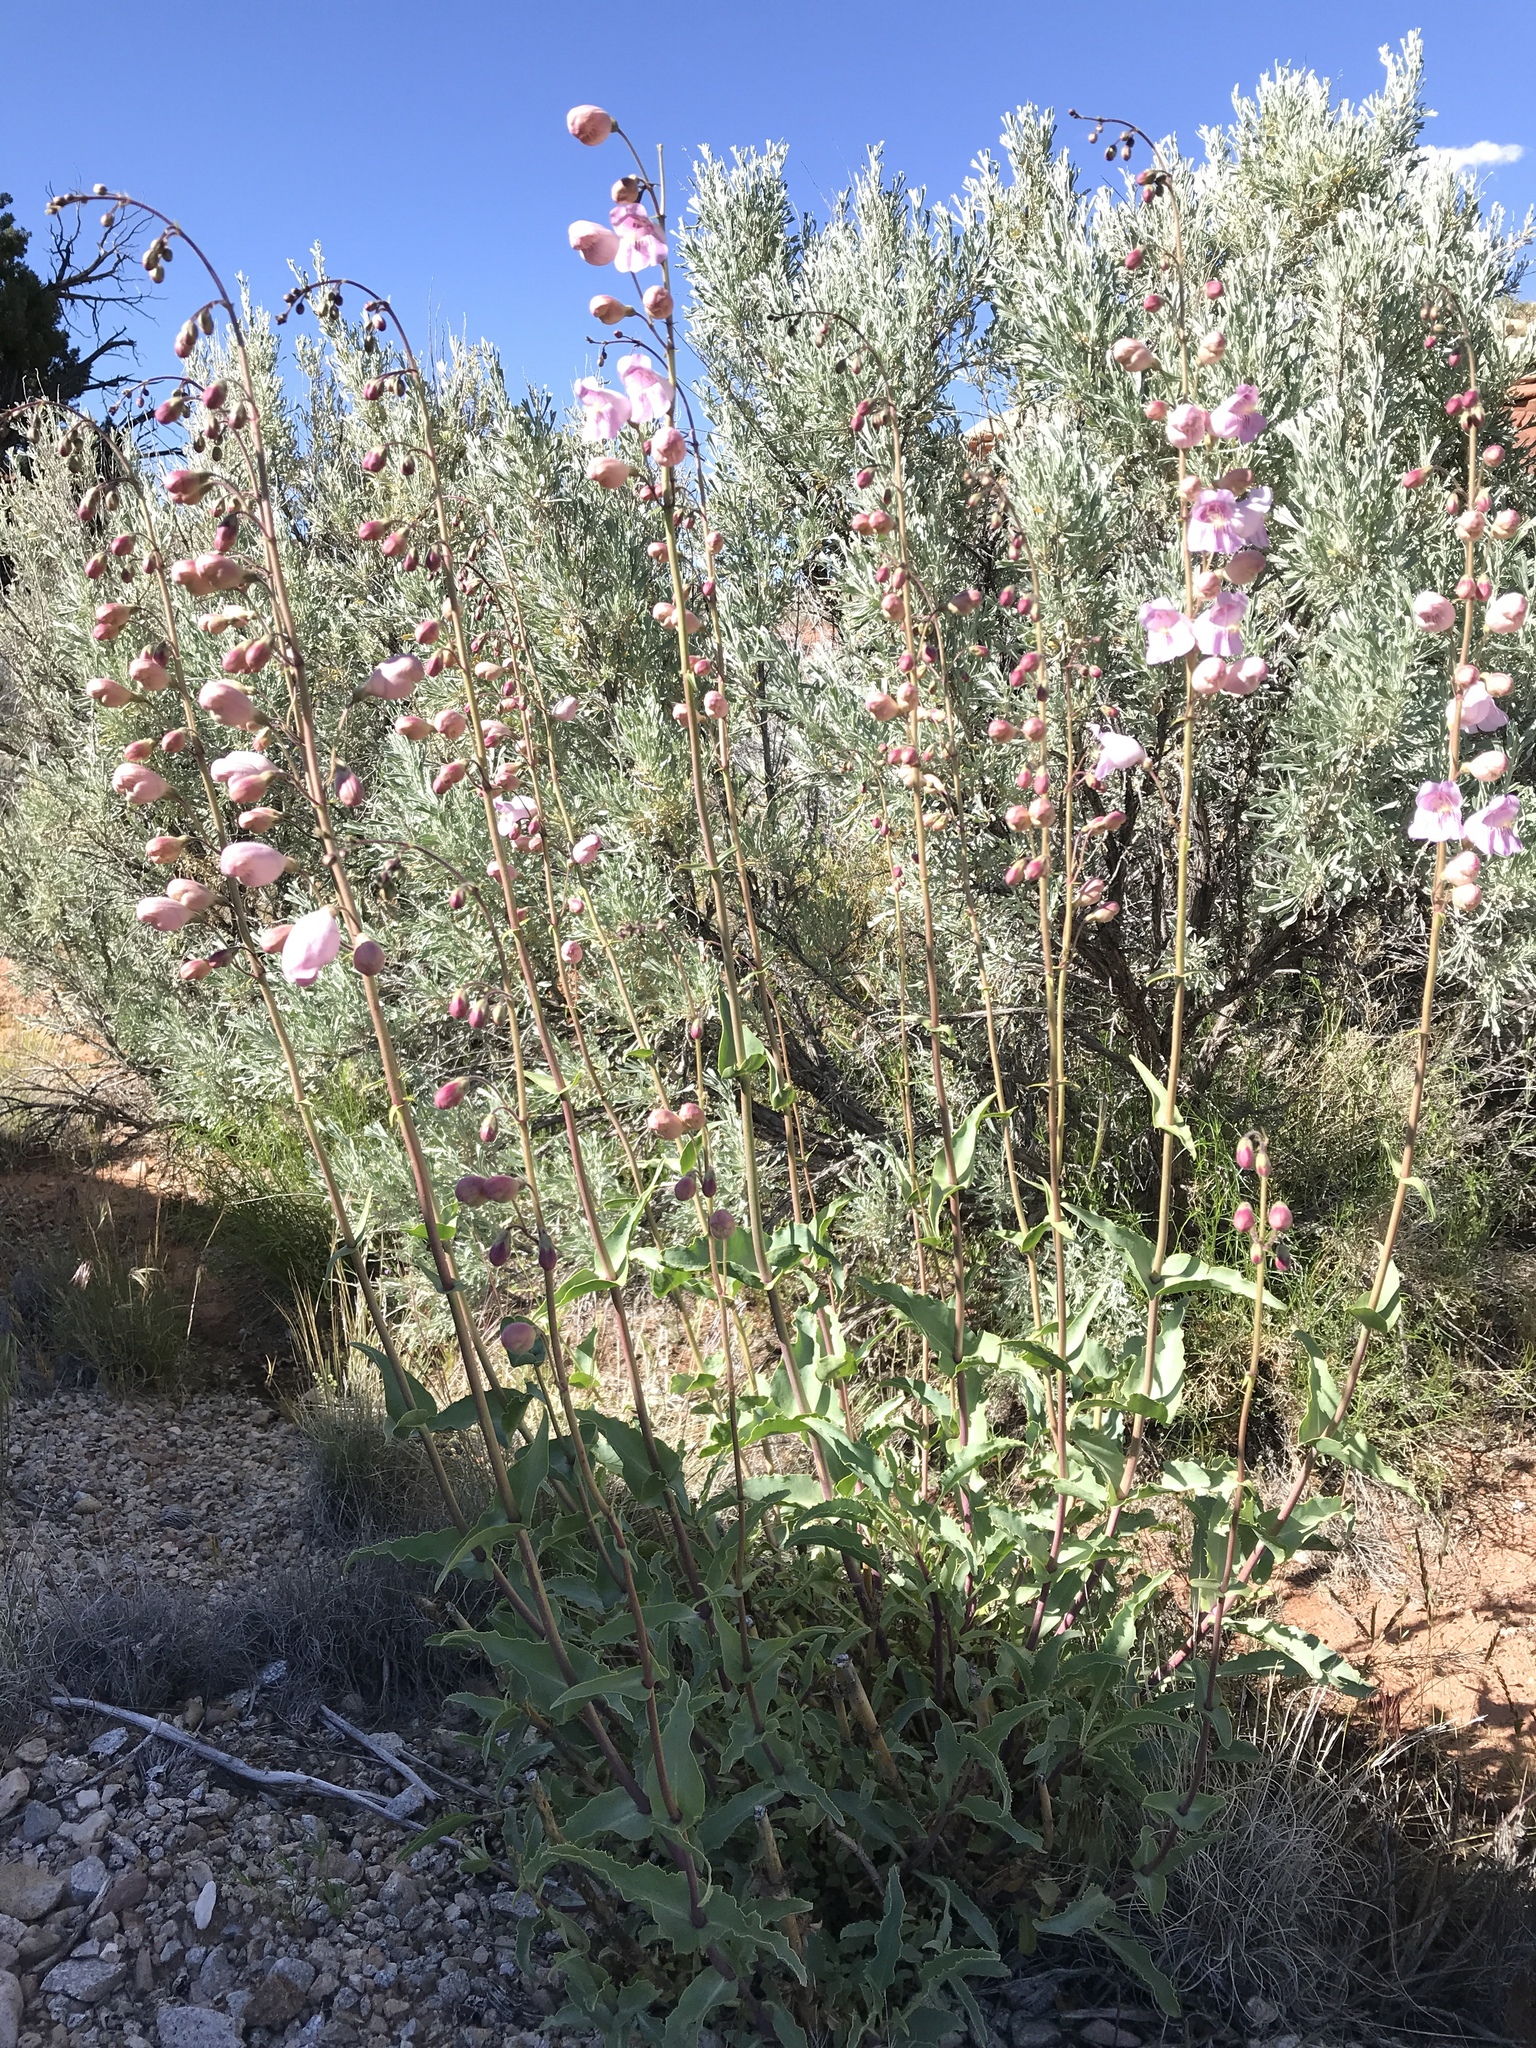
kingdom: Plantae
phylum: Tracheophyta
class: Magnoliopsida
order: Lamiales
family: Plantaginaceae
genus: Penstemon
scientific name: Penstemon palmeri
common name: Palmer penstemon
